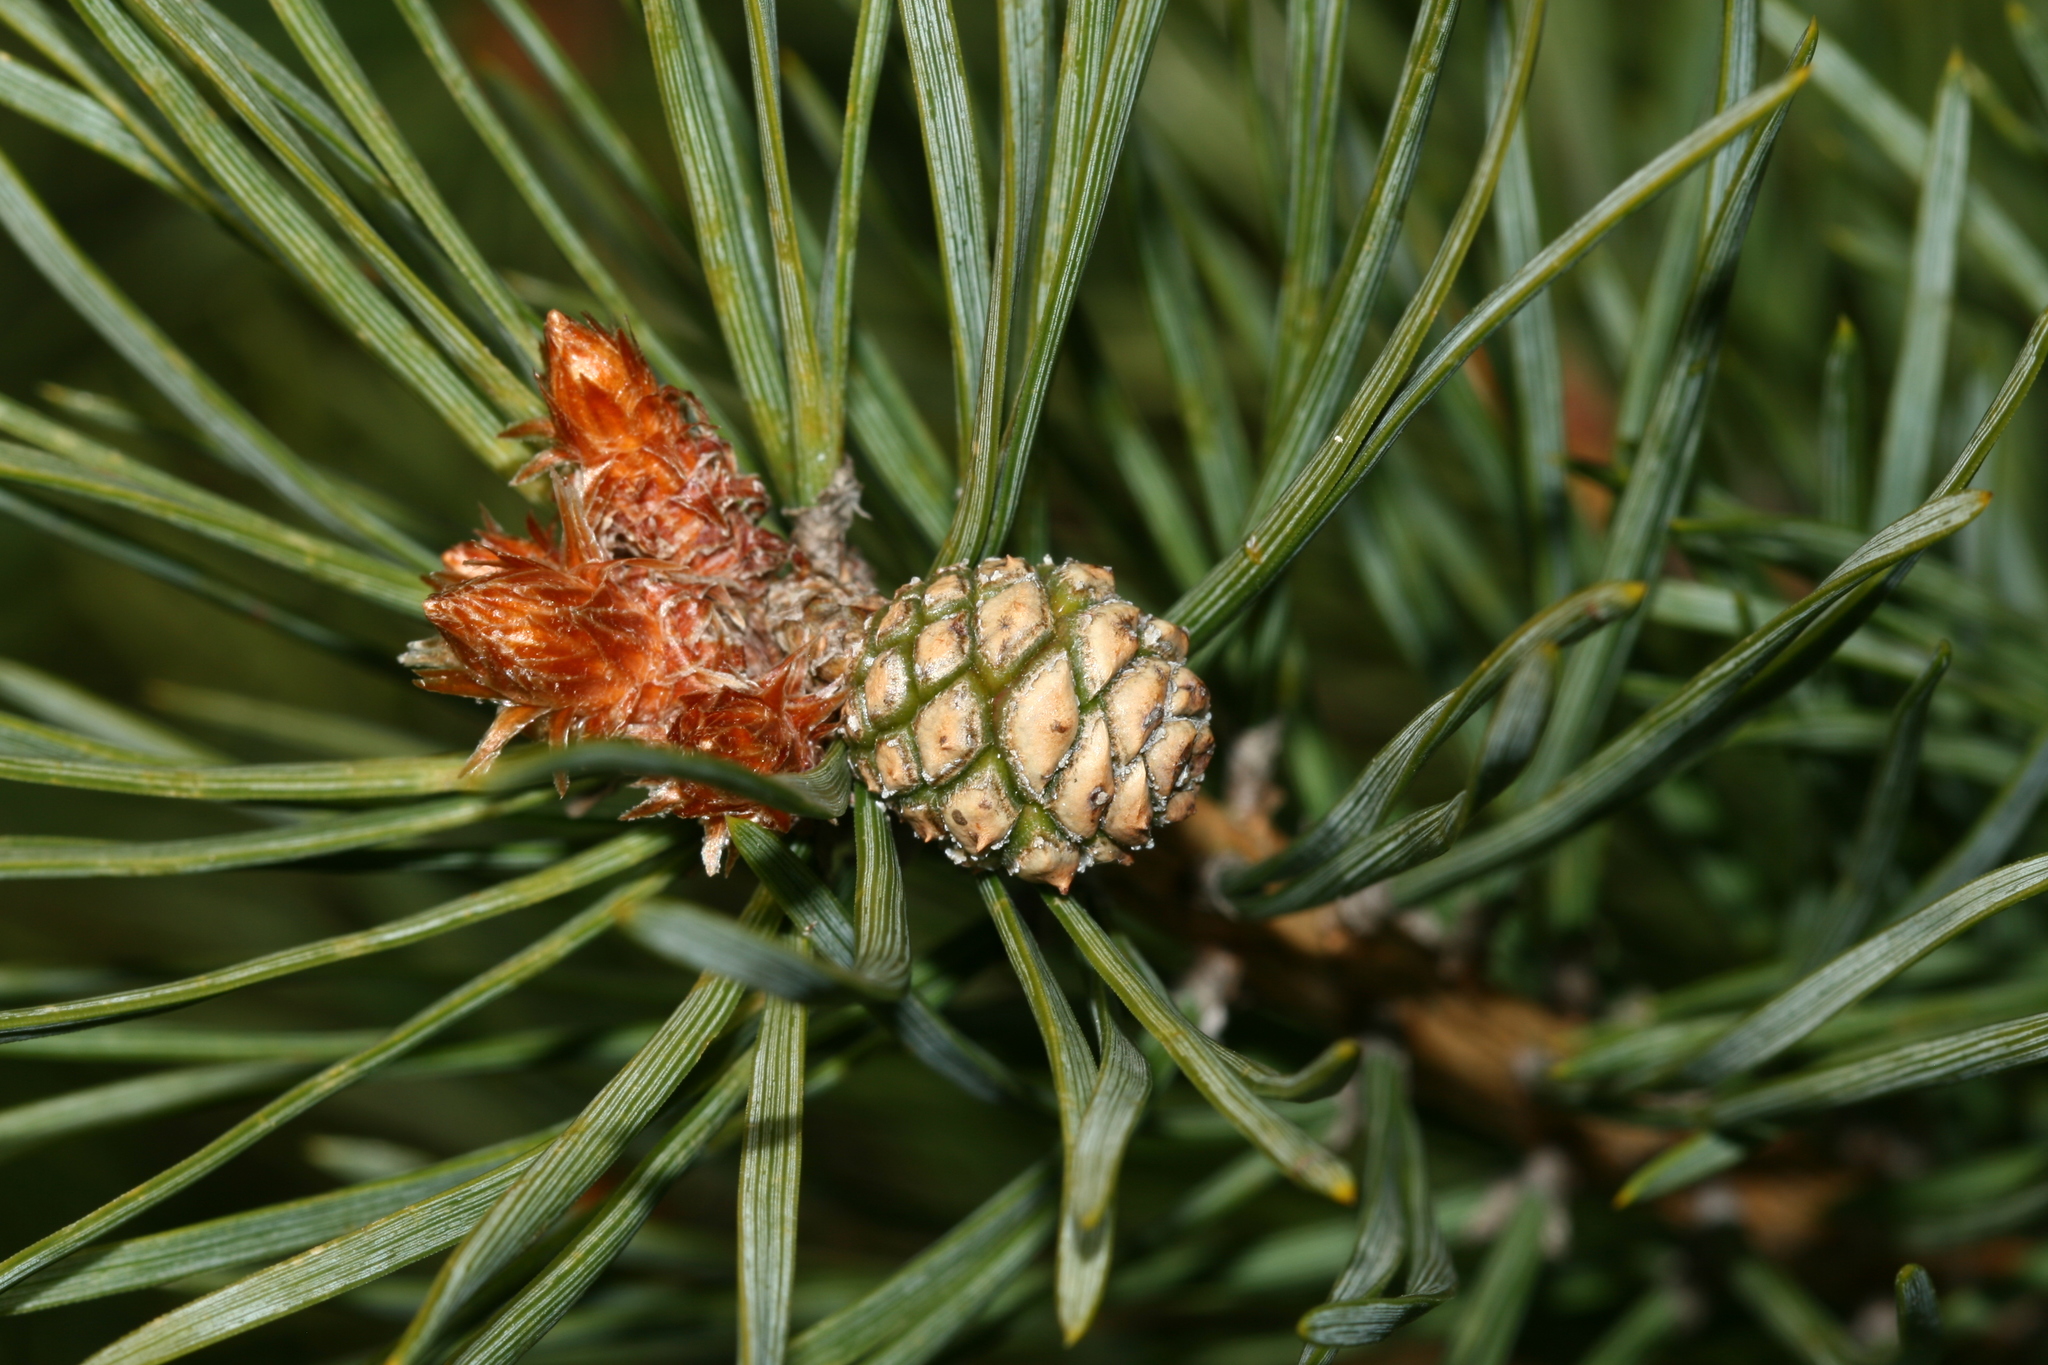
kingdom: Plantae
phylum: Tracheophyta
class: Pinopsida
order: Pinales
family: Pinaceae
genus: Pinus
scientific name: Pinus sylvestris
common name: Scots pine
